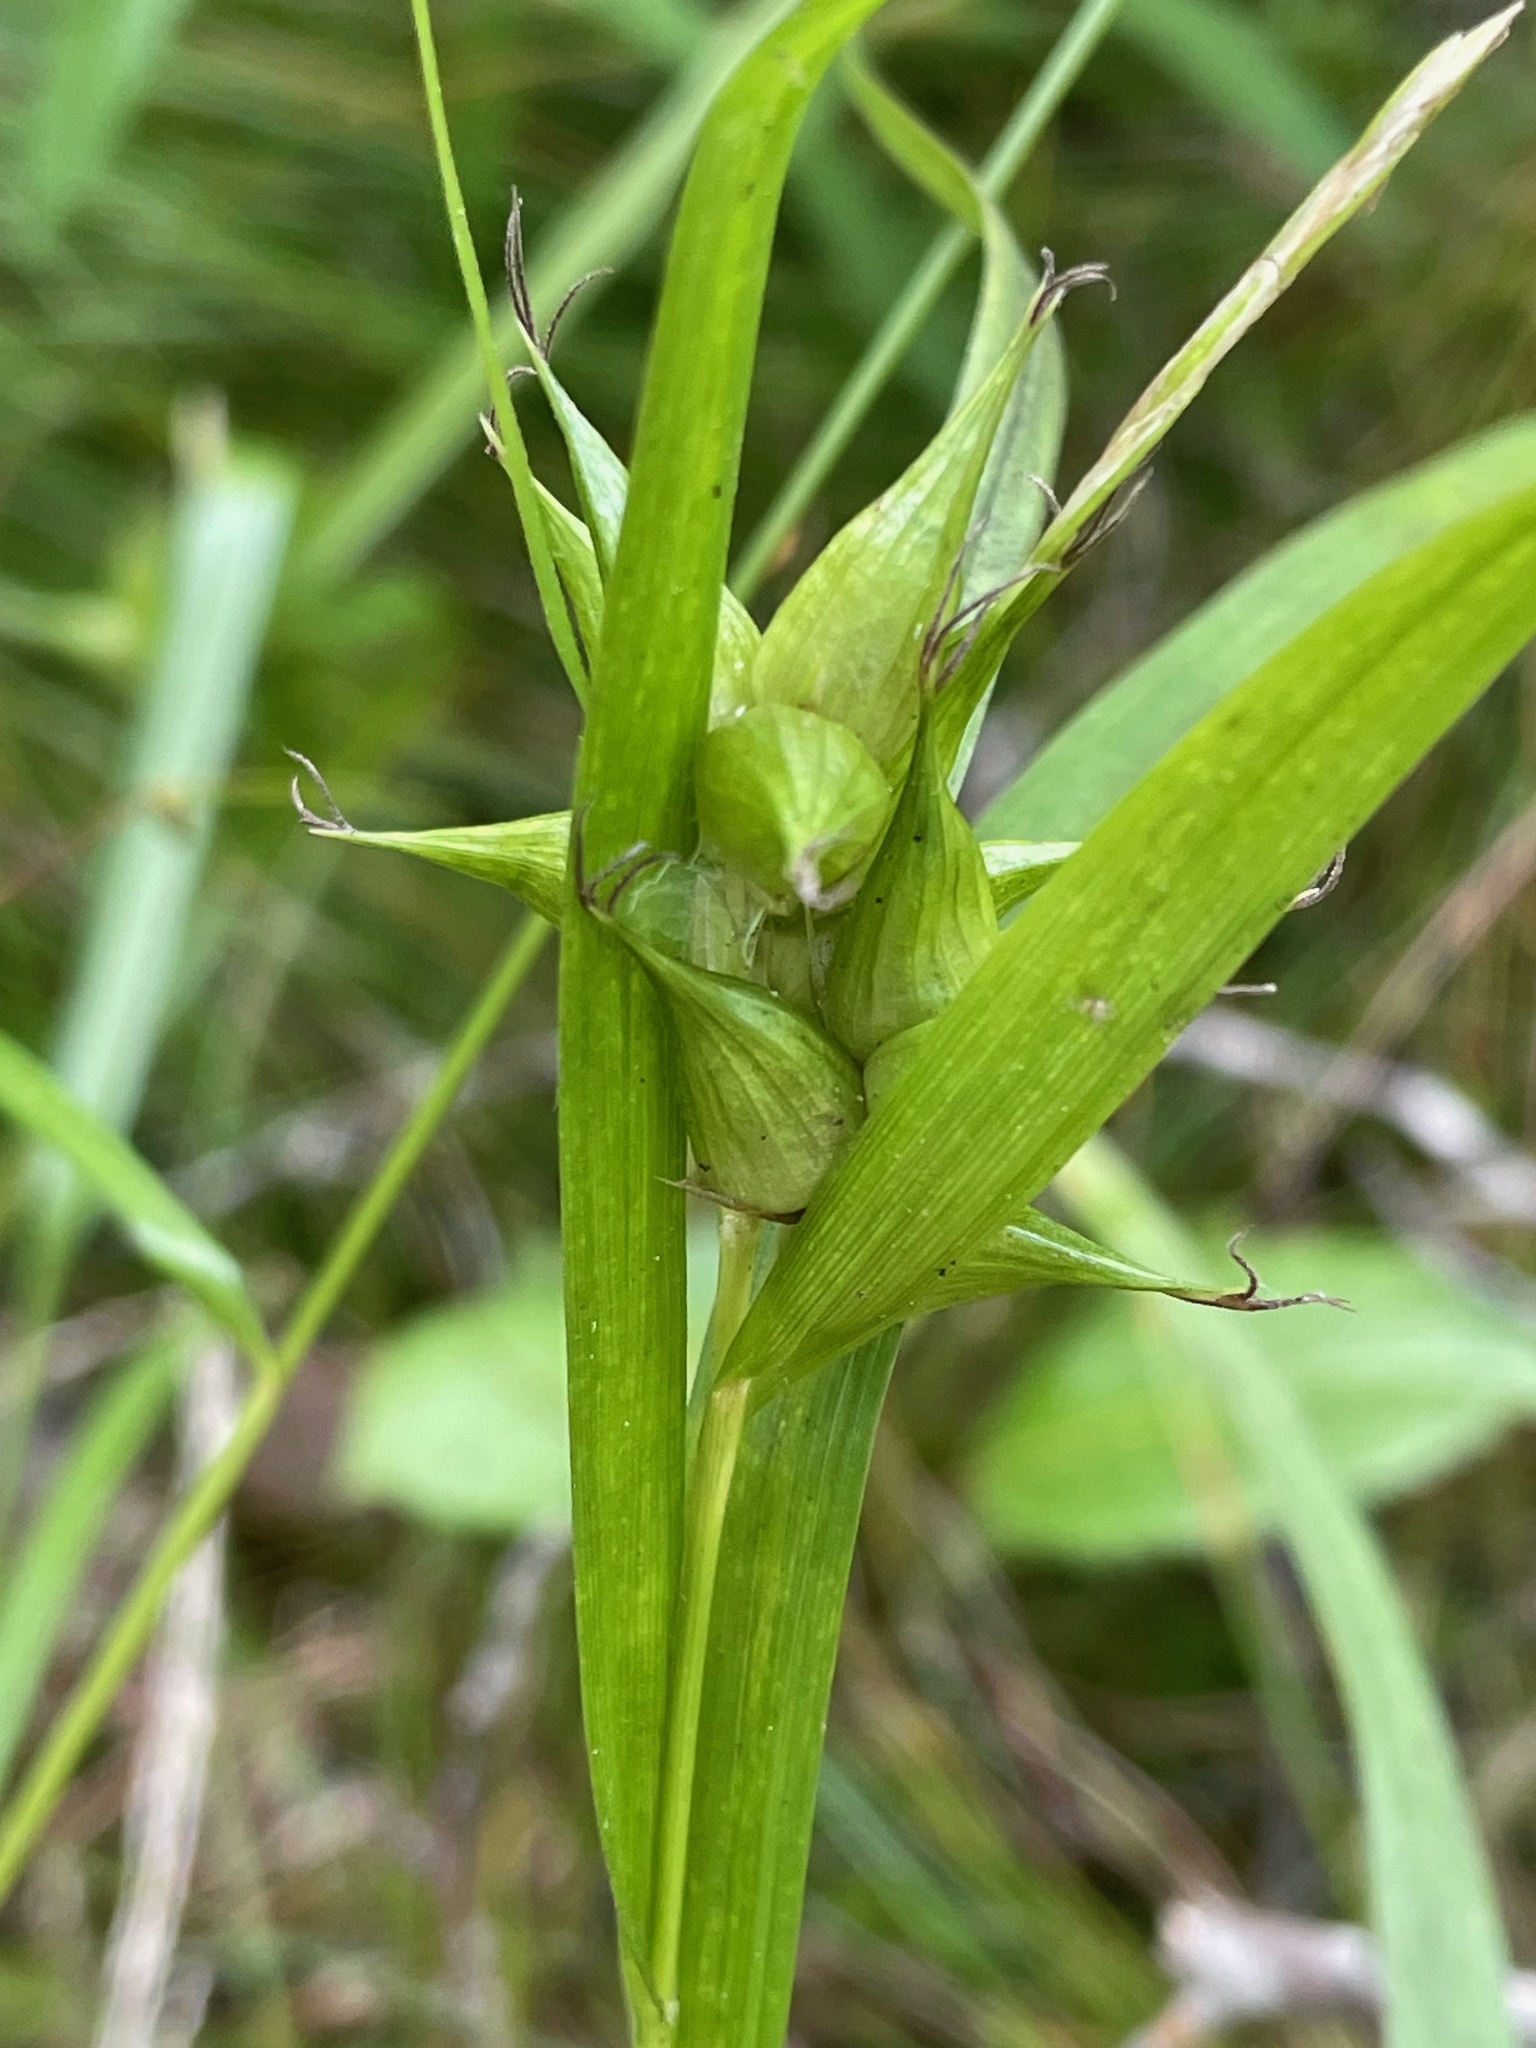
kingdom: Plantae
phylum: Tracheophyta
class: Liliopsida
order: Poales
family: Cyperaceae
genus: Carex
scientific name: Carex intumescens
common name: Greater bladder sedge
